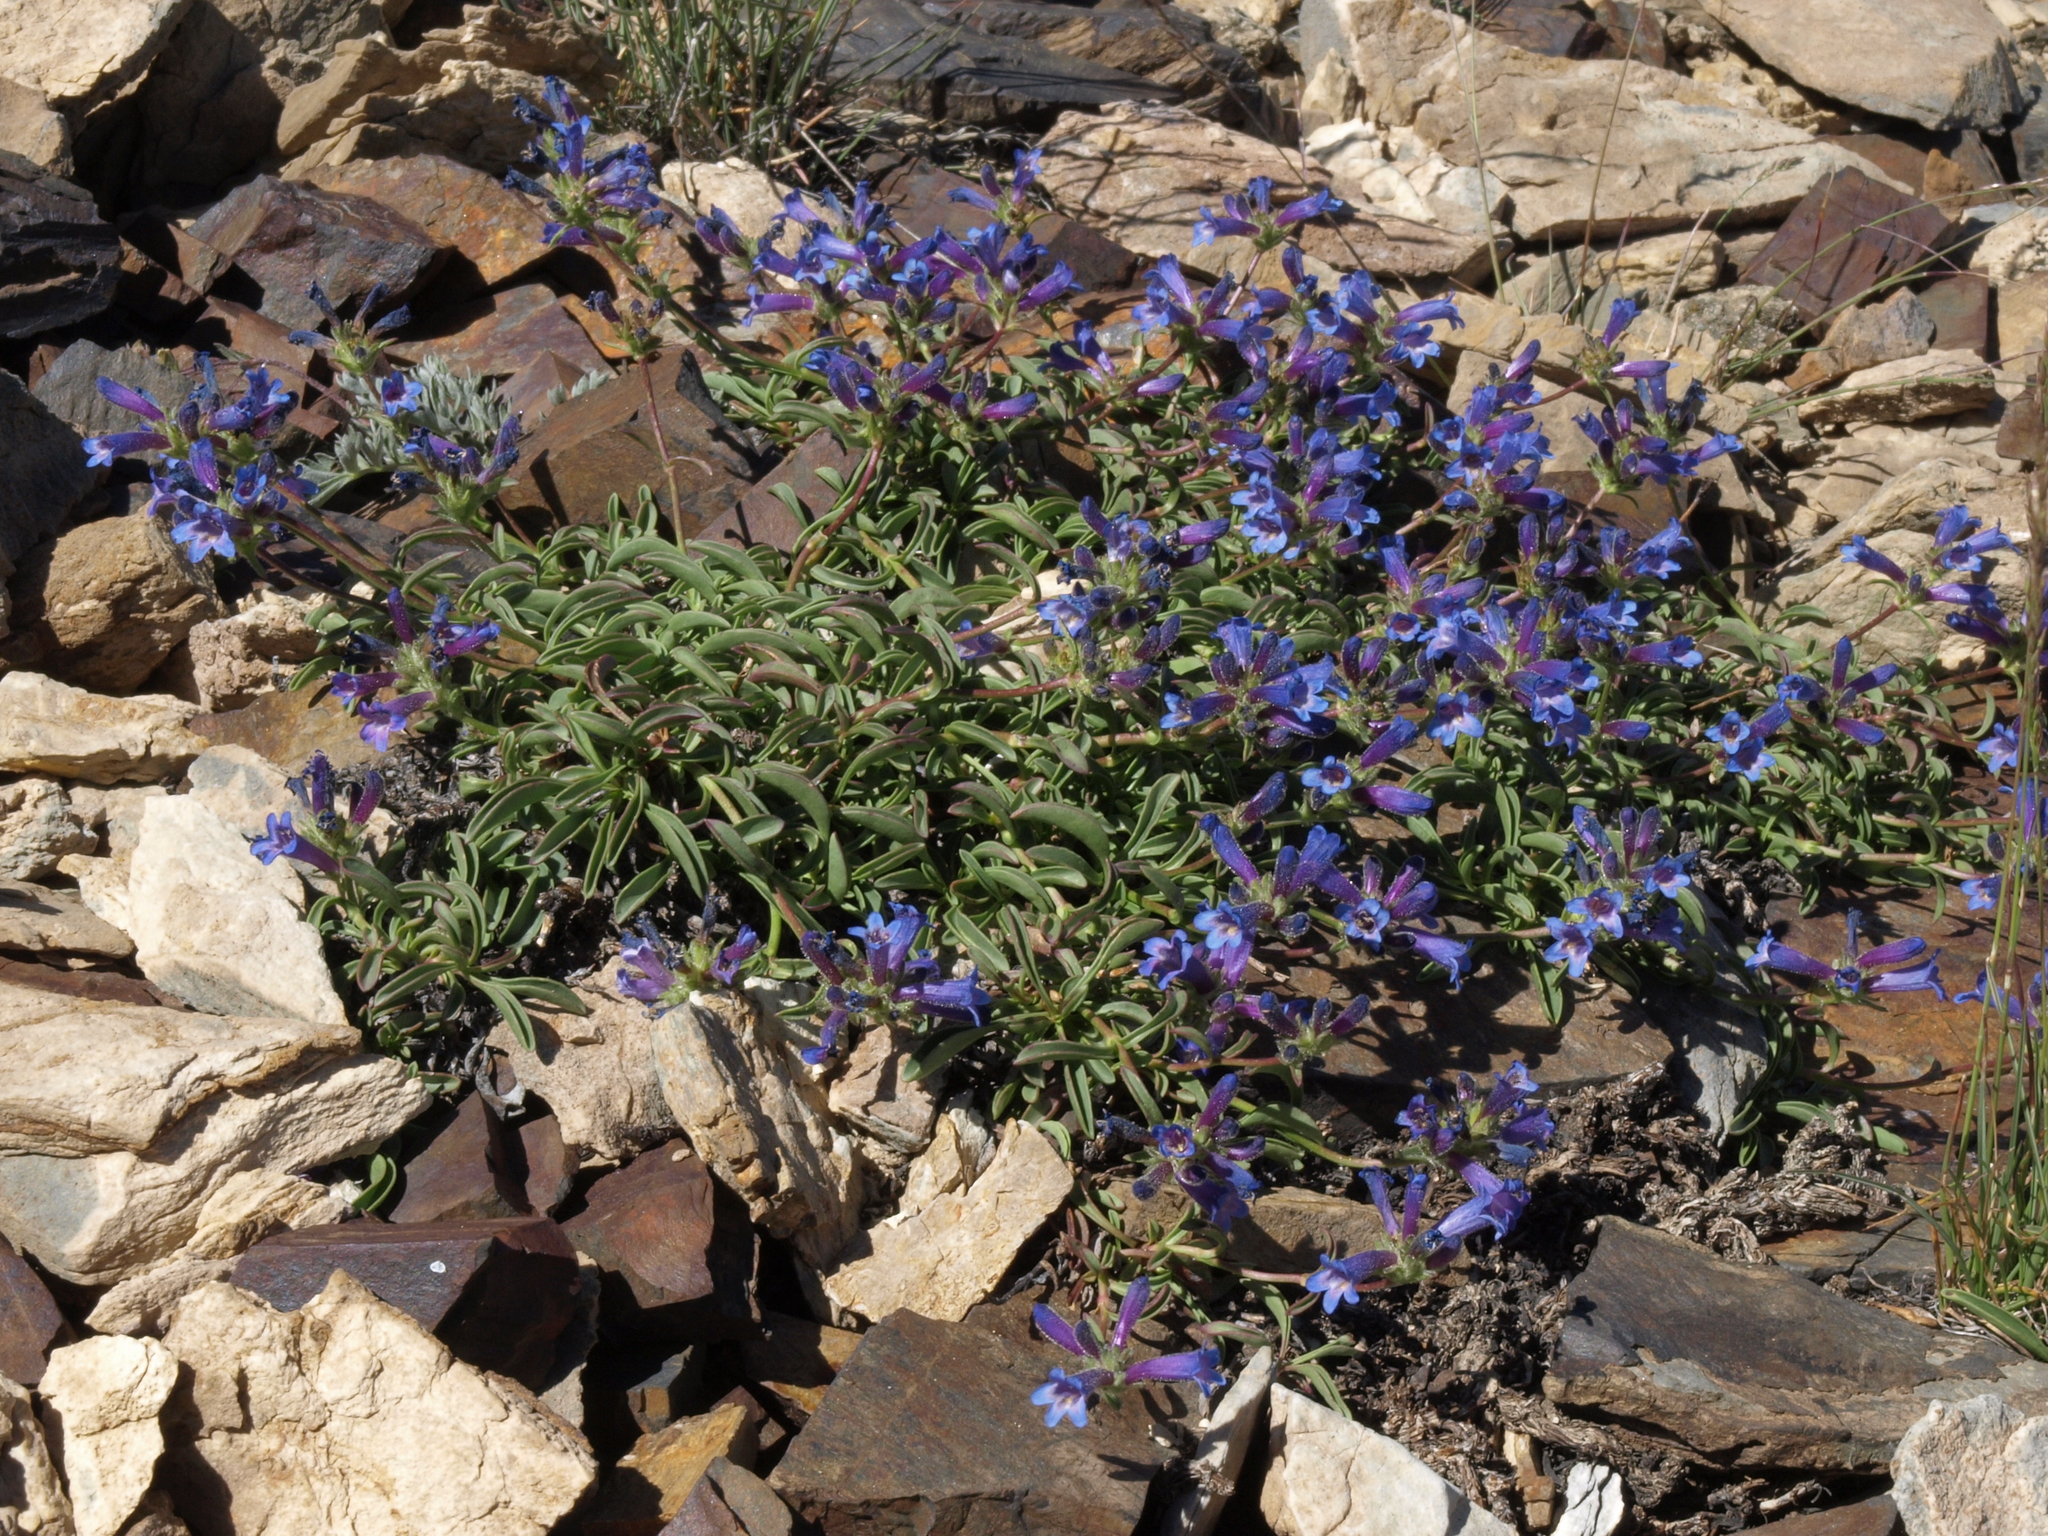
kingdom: Plantae
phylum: Tracheophyta
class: Magnoliopsida
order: Lamiales
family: Plantaginaceae
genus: Penstemon
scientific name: Penstemon heterodoxus
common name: Sierran penstemon
